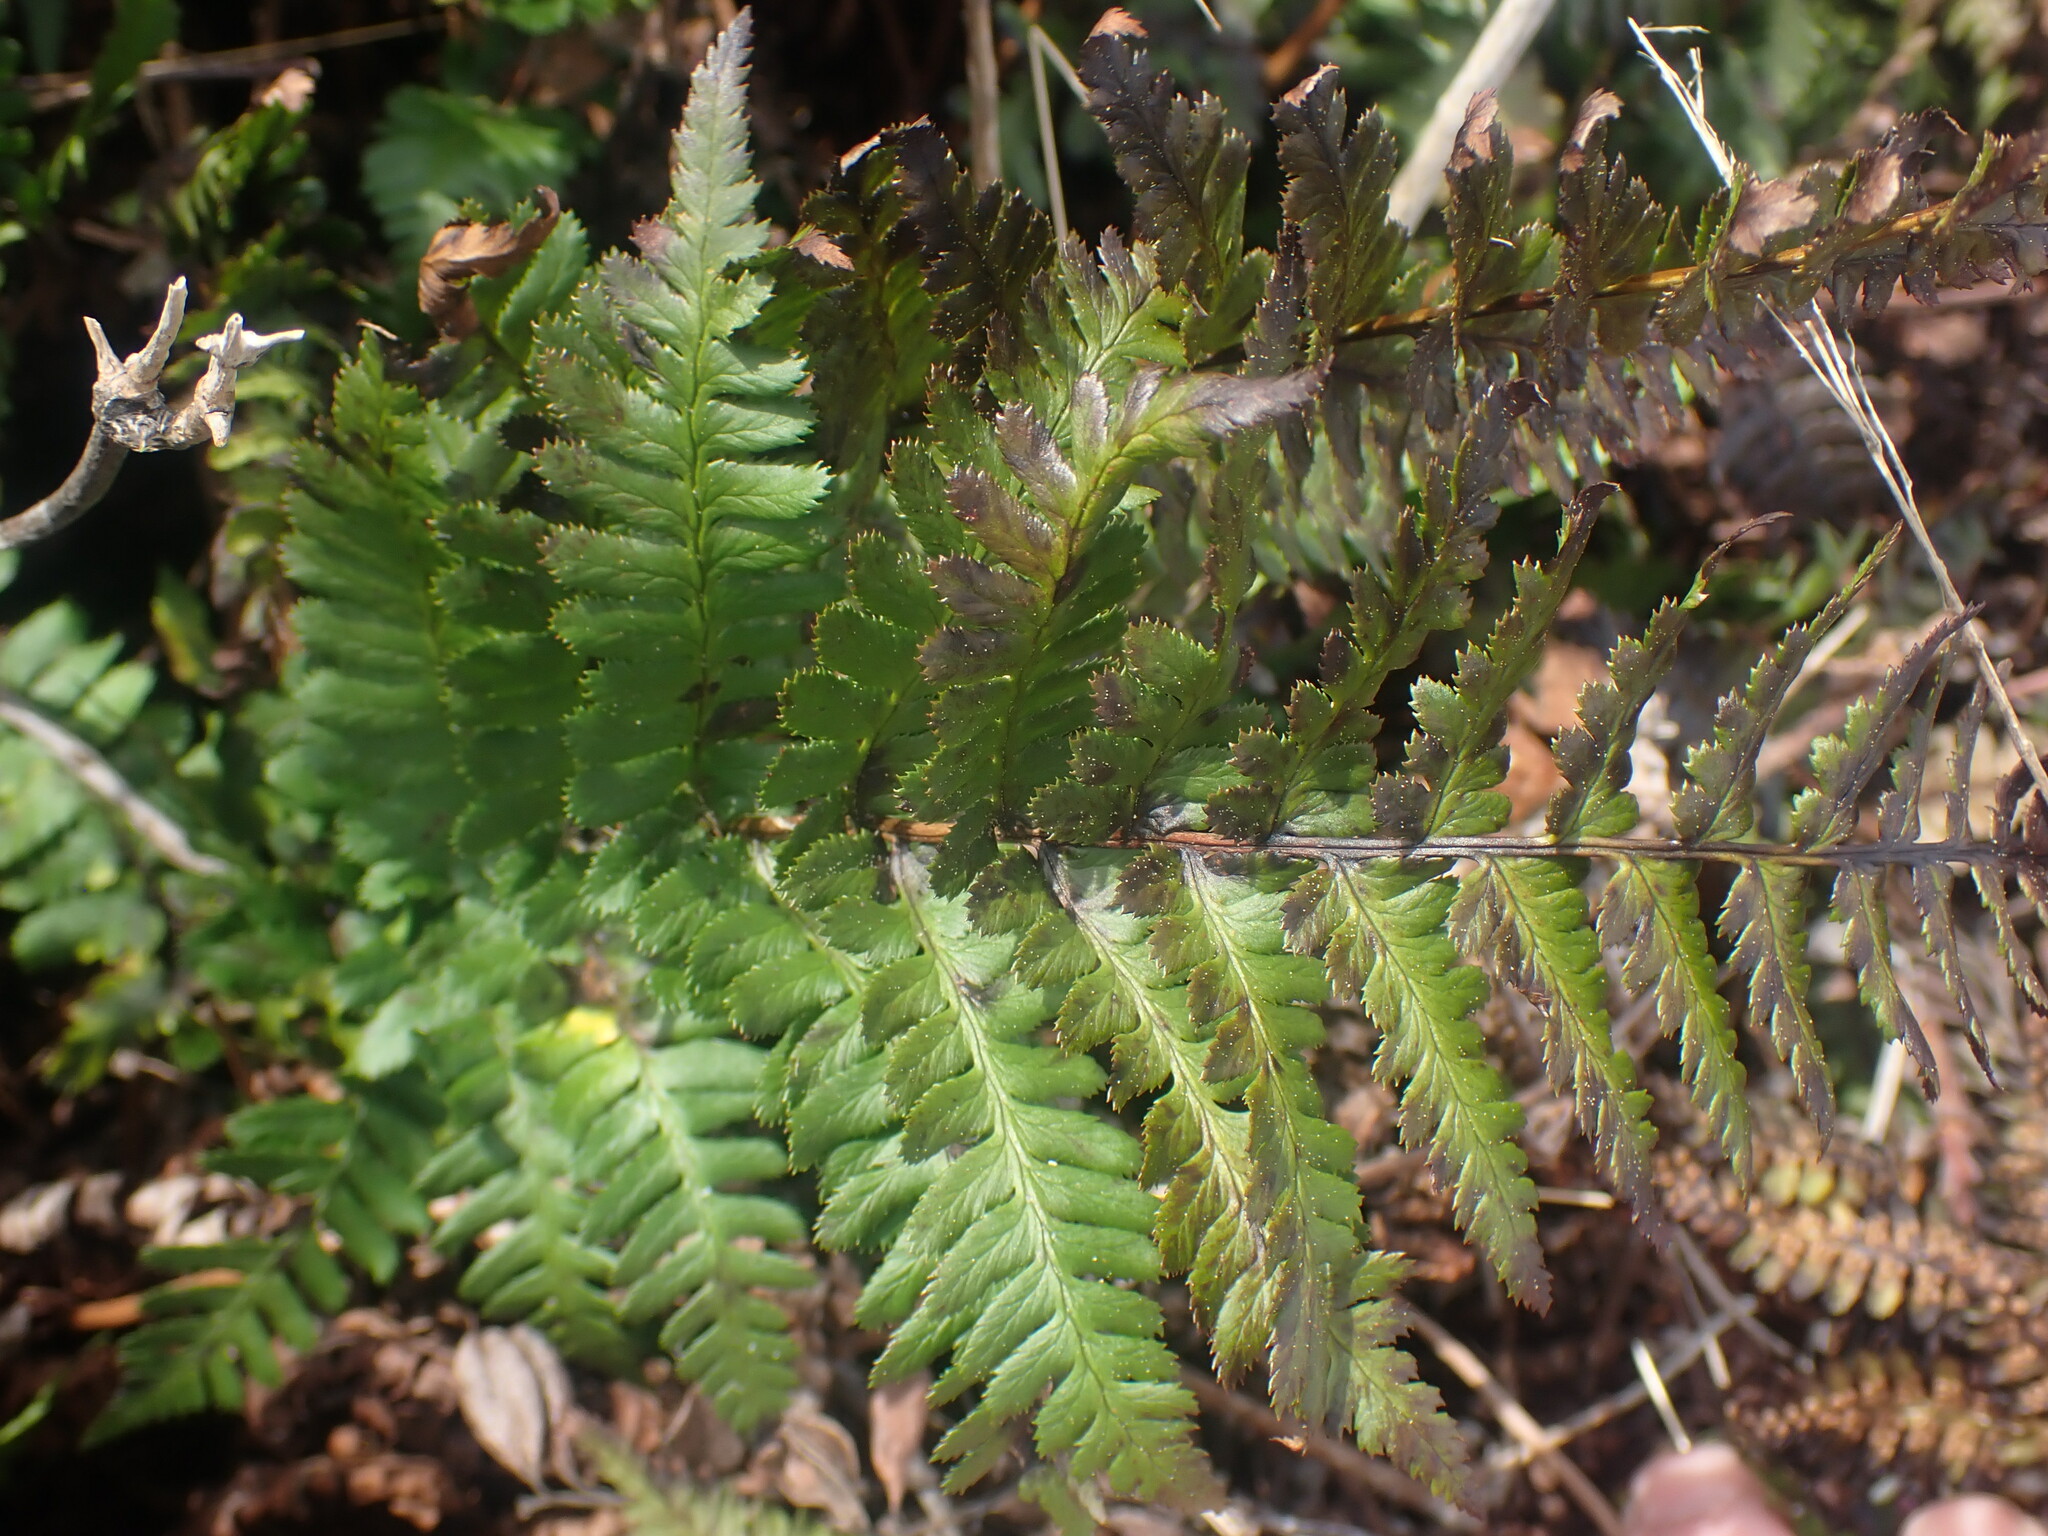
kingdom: Plantae
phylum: Tracheophyta
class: Polypodiopsida
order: Polypodiales
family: Dryopteridaceae
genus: Dryopteris
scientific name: Dryopteris arguta
